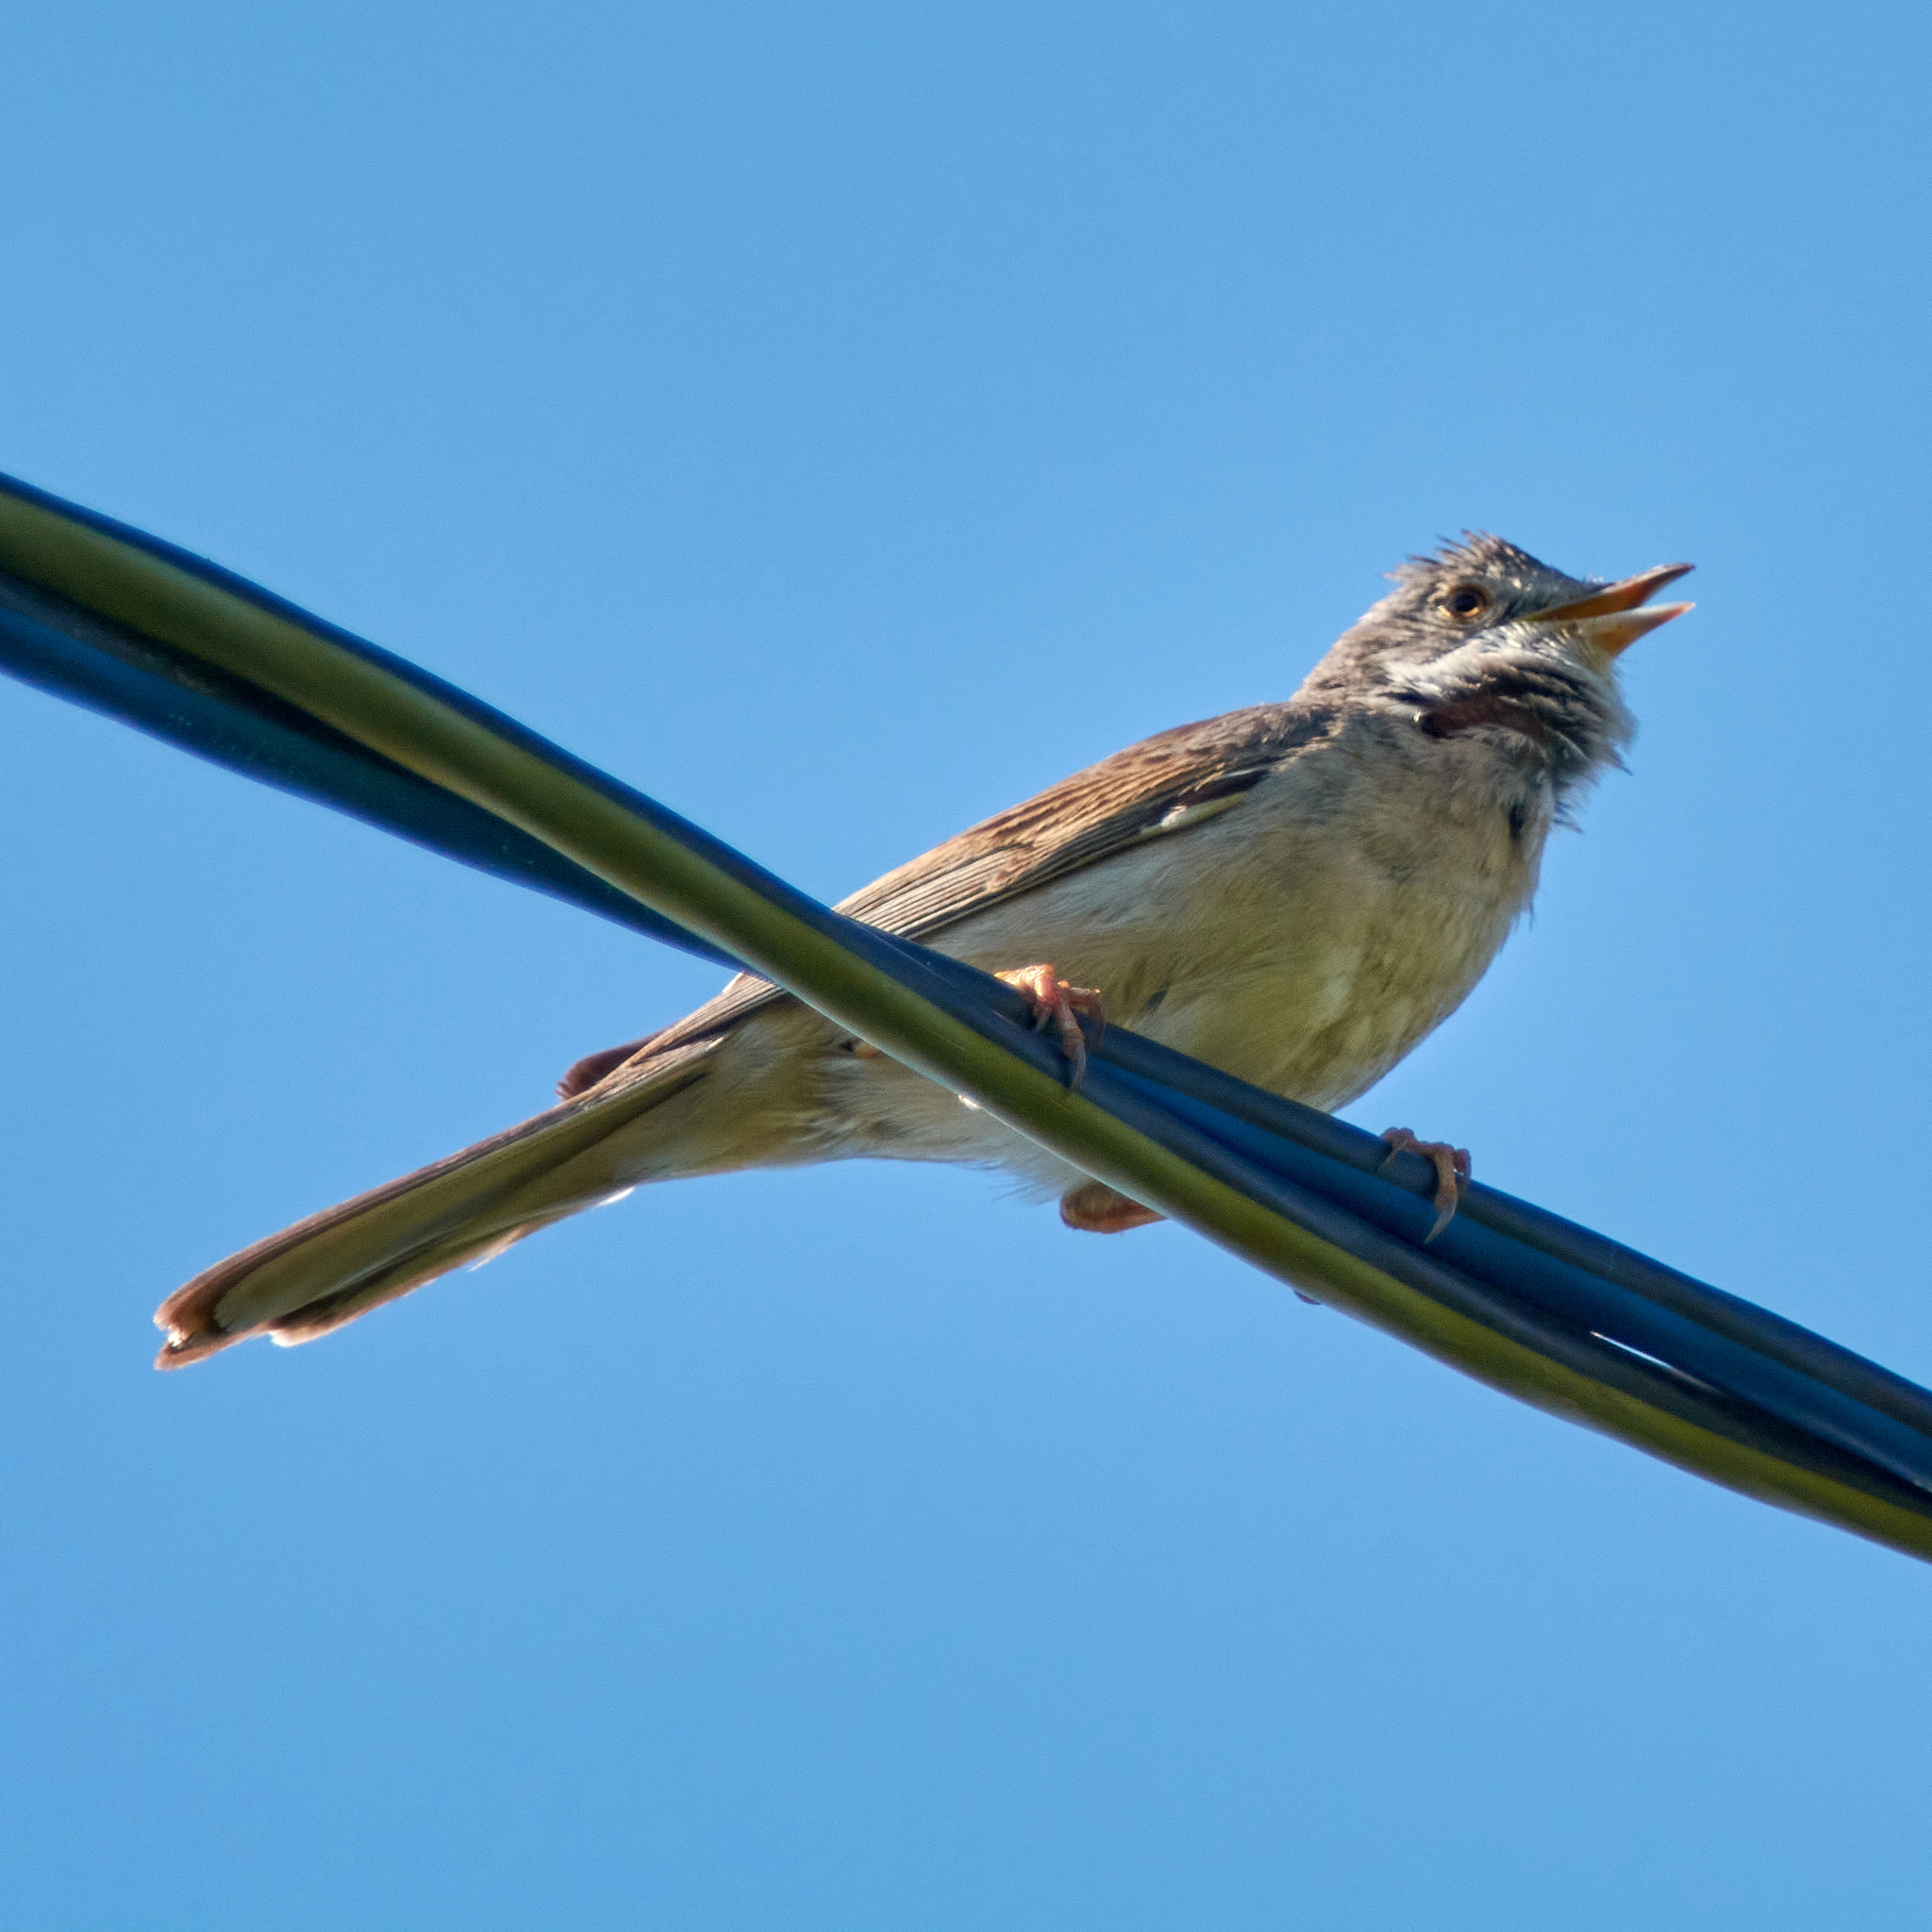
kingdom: Animalia
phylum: Chordata
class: Aves
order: Passeriformes
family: Sylviidae
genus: Sylvia
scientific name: Sylvia communis
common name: Common whitethroat
